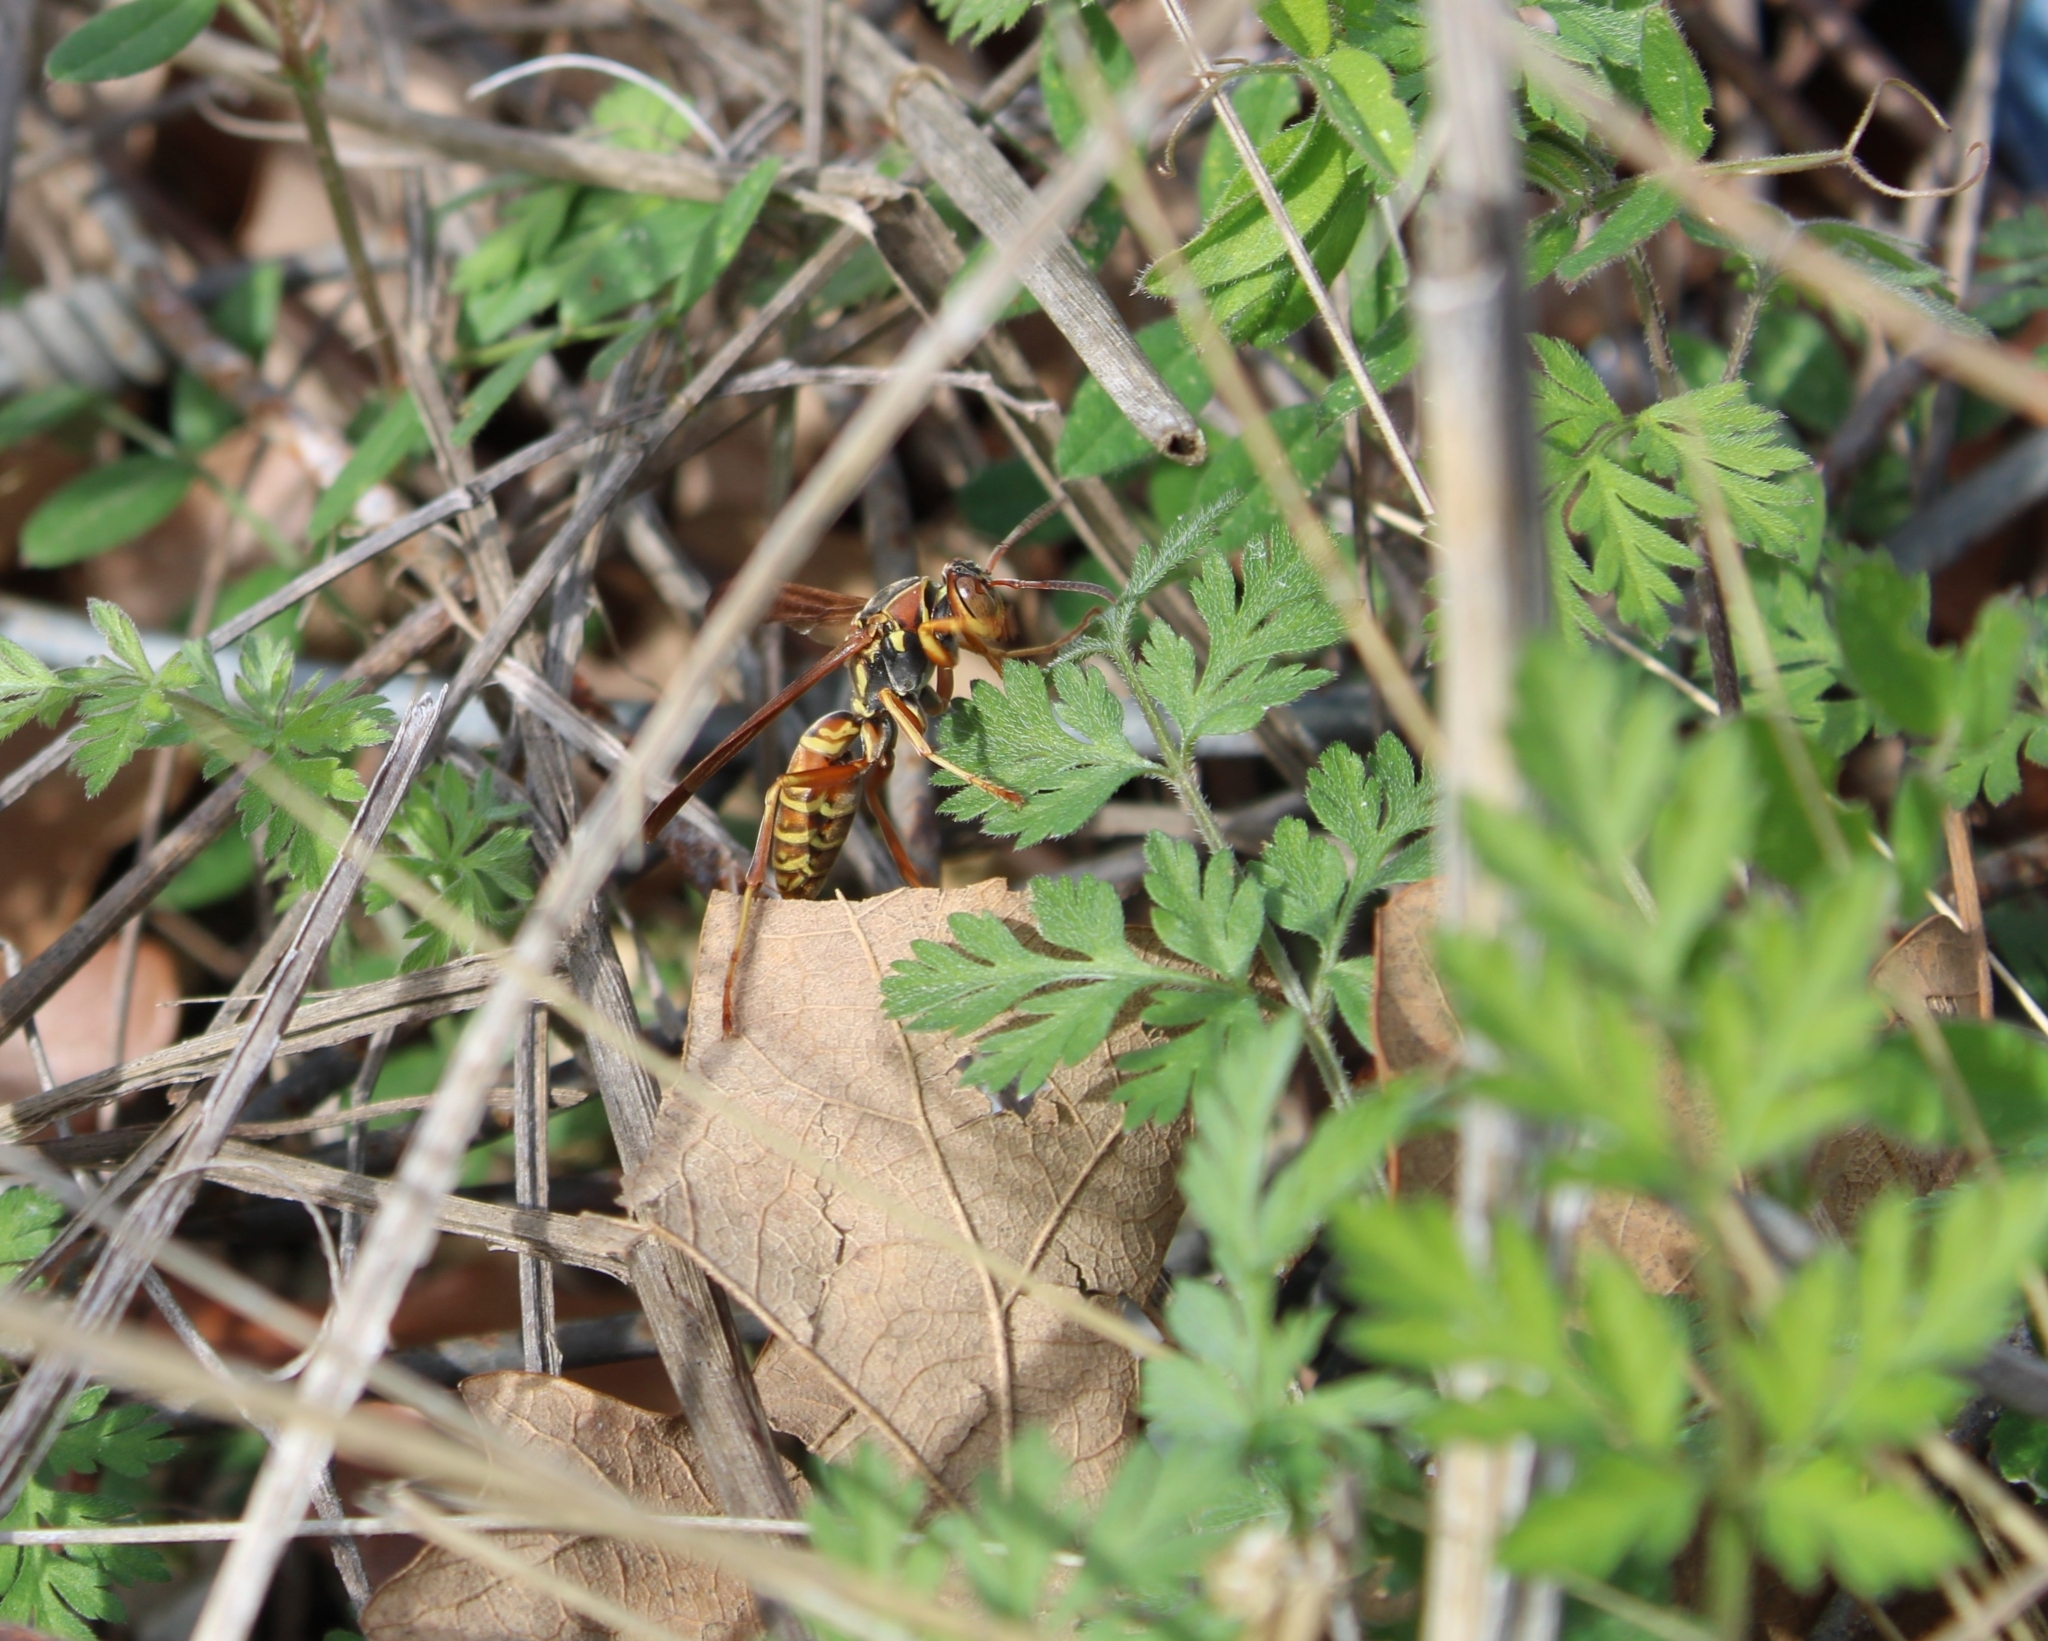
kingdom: Animalia
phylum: Arthropoda
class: Insecta
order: Hymenoptera
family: Eumenidae
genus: Polistes
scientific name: Polistes fuscatus
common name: Dark paper wasp
